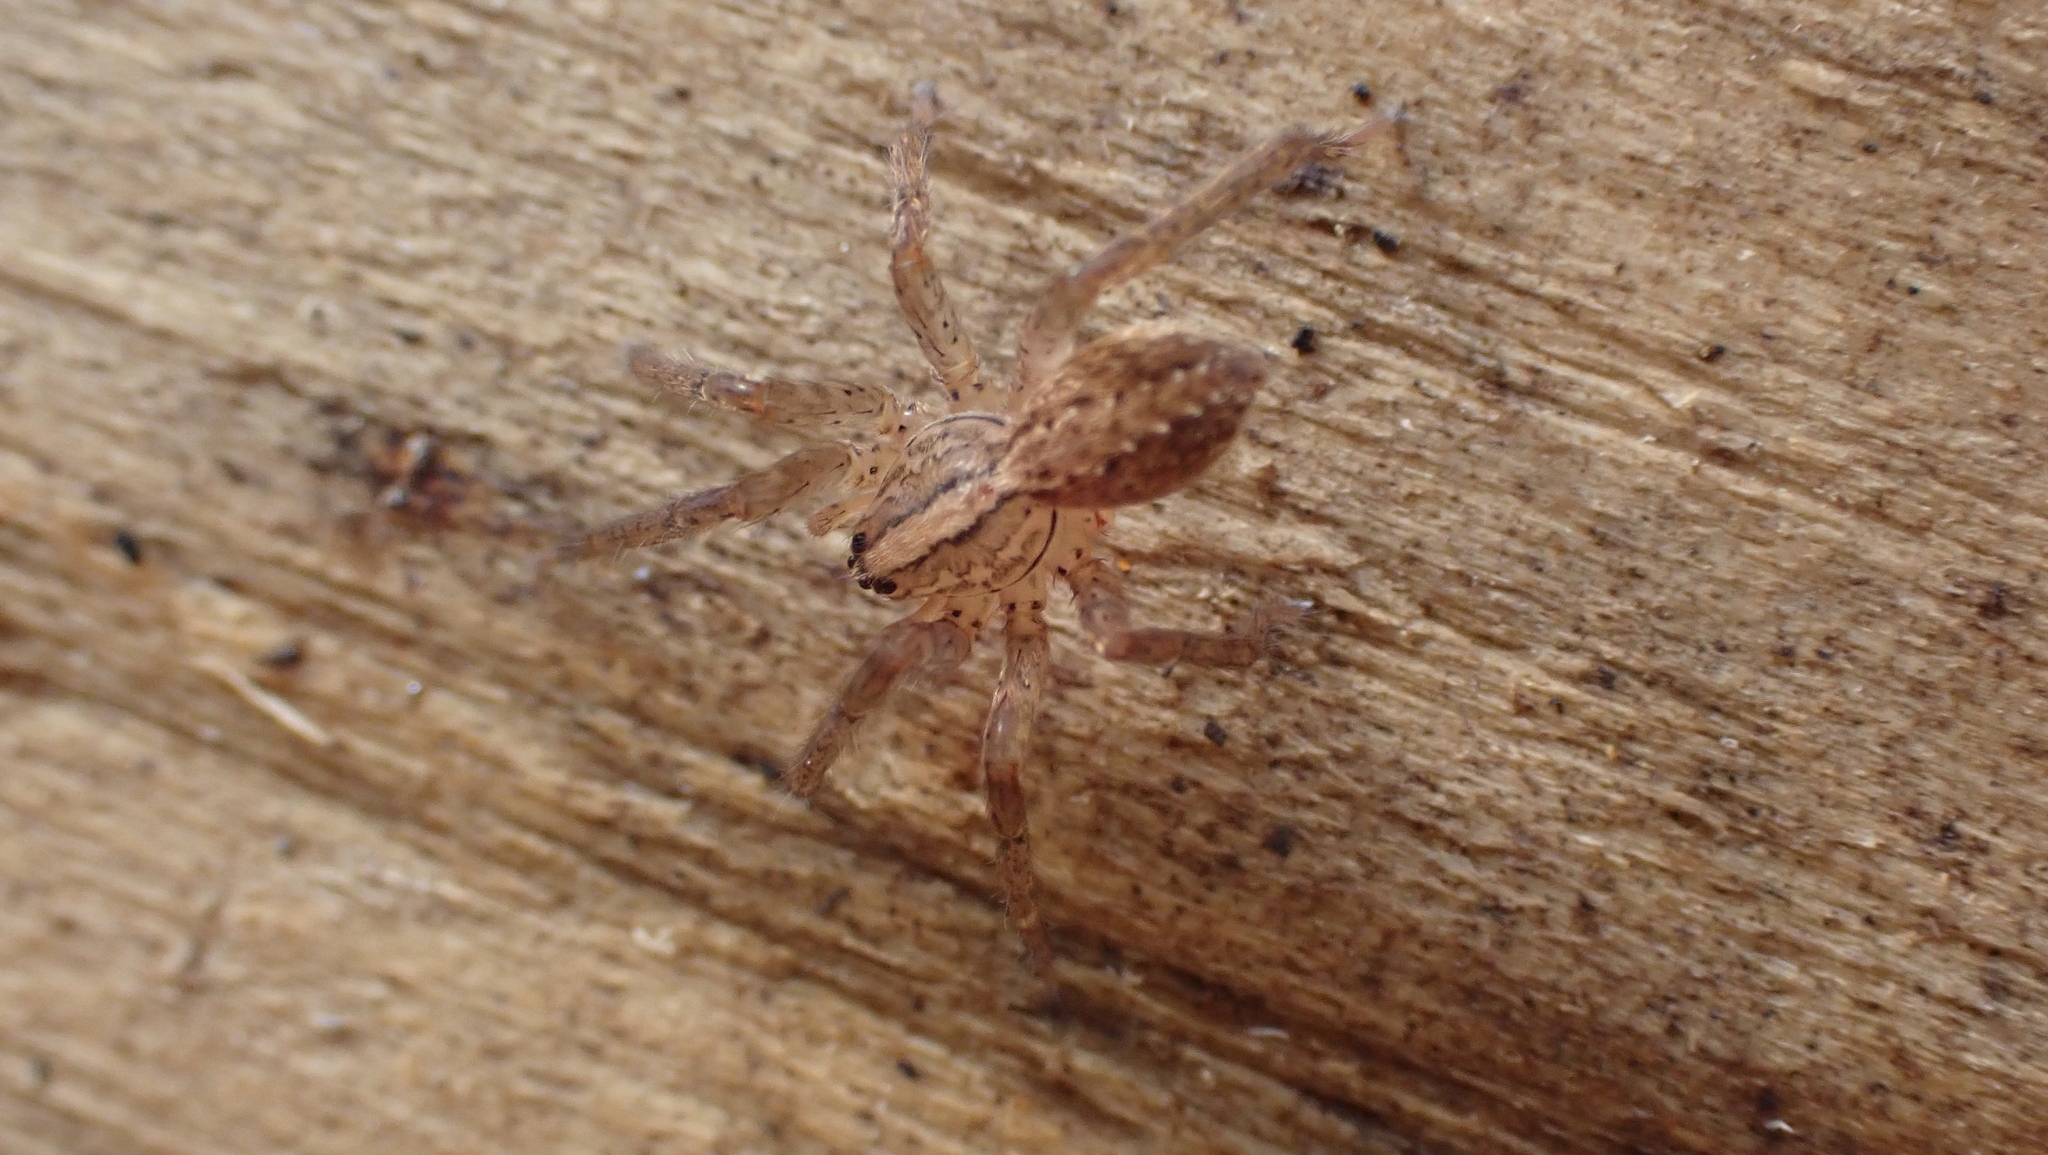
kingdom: Animalia
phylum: Arthropoda
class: Arachnida
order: Araneae
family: Ctenidae
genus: Anahita
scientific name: Anahita punctulata
